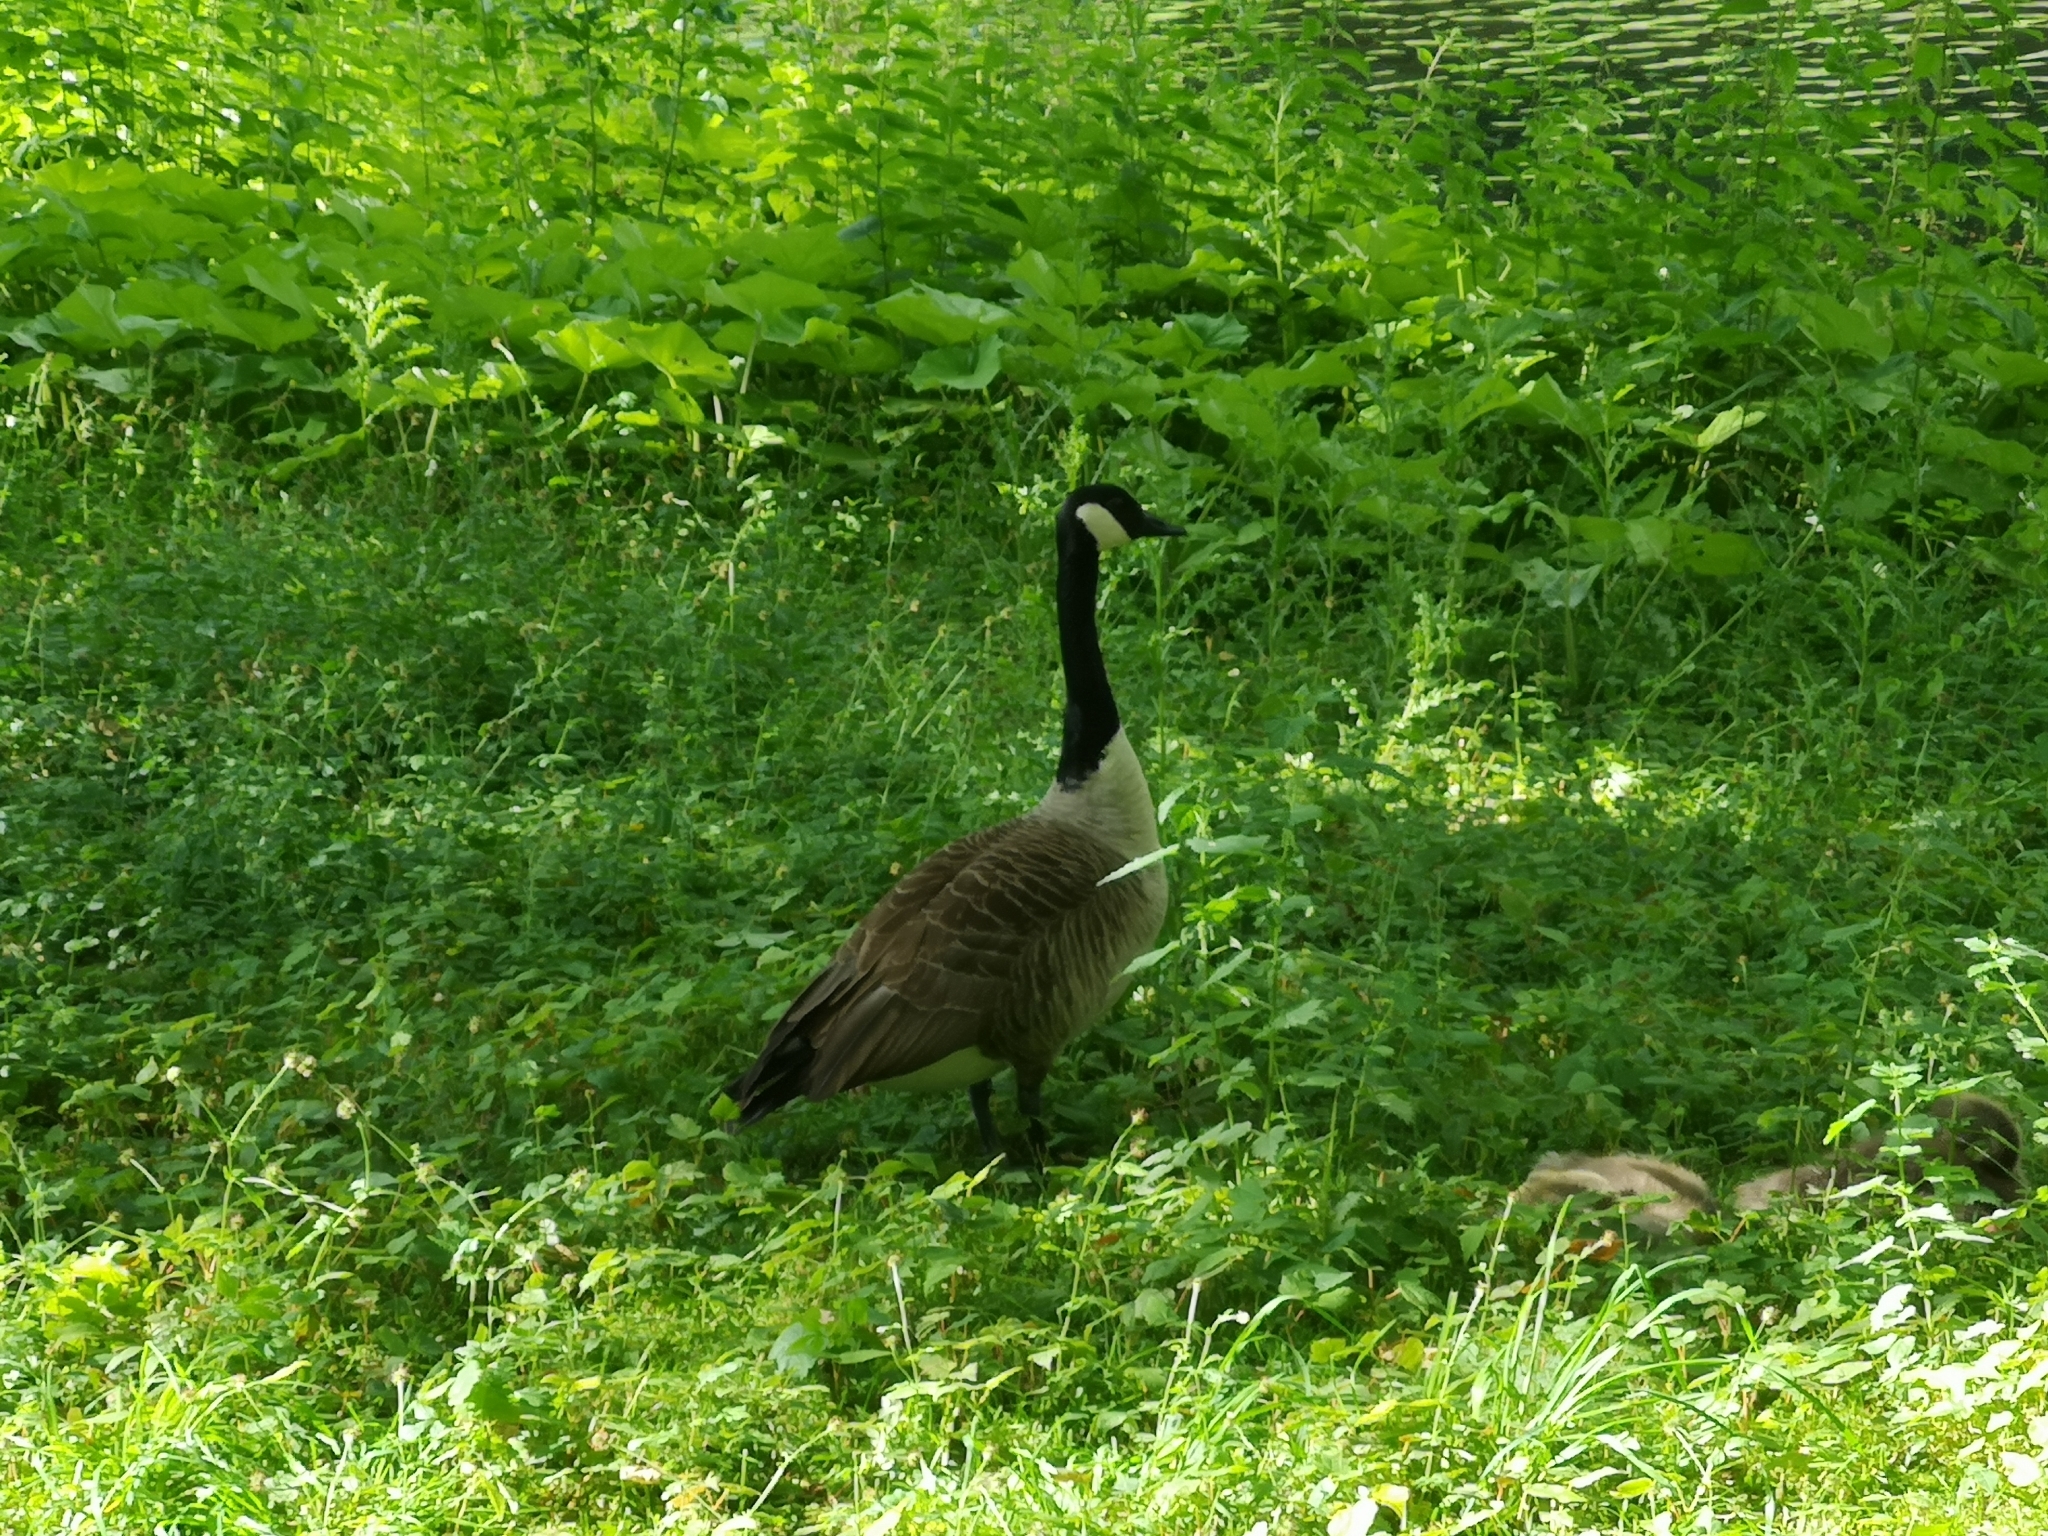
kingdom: Animalia
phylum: Chordata
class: Aves
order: Anseriformes
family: Anatidae
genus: Branta
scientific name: Branta canadensis
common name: Canada goose
